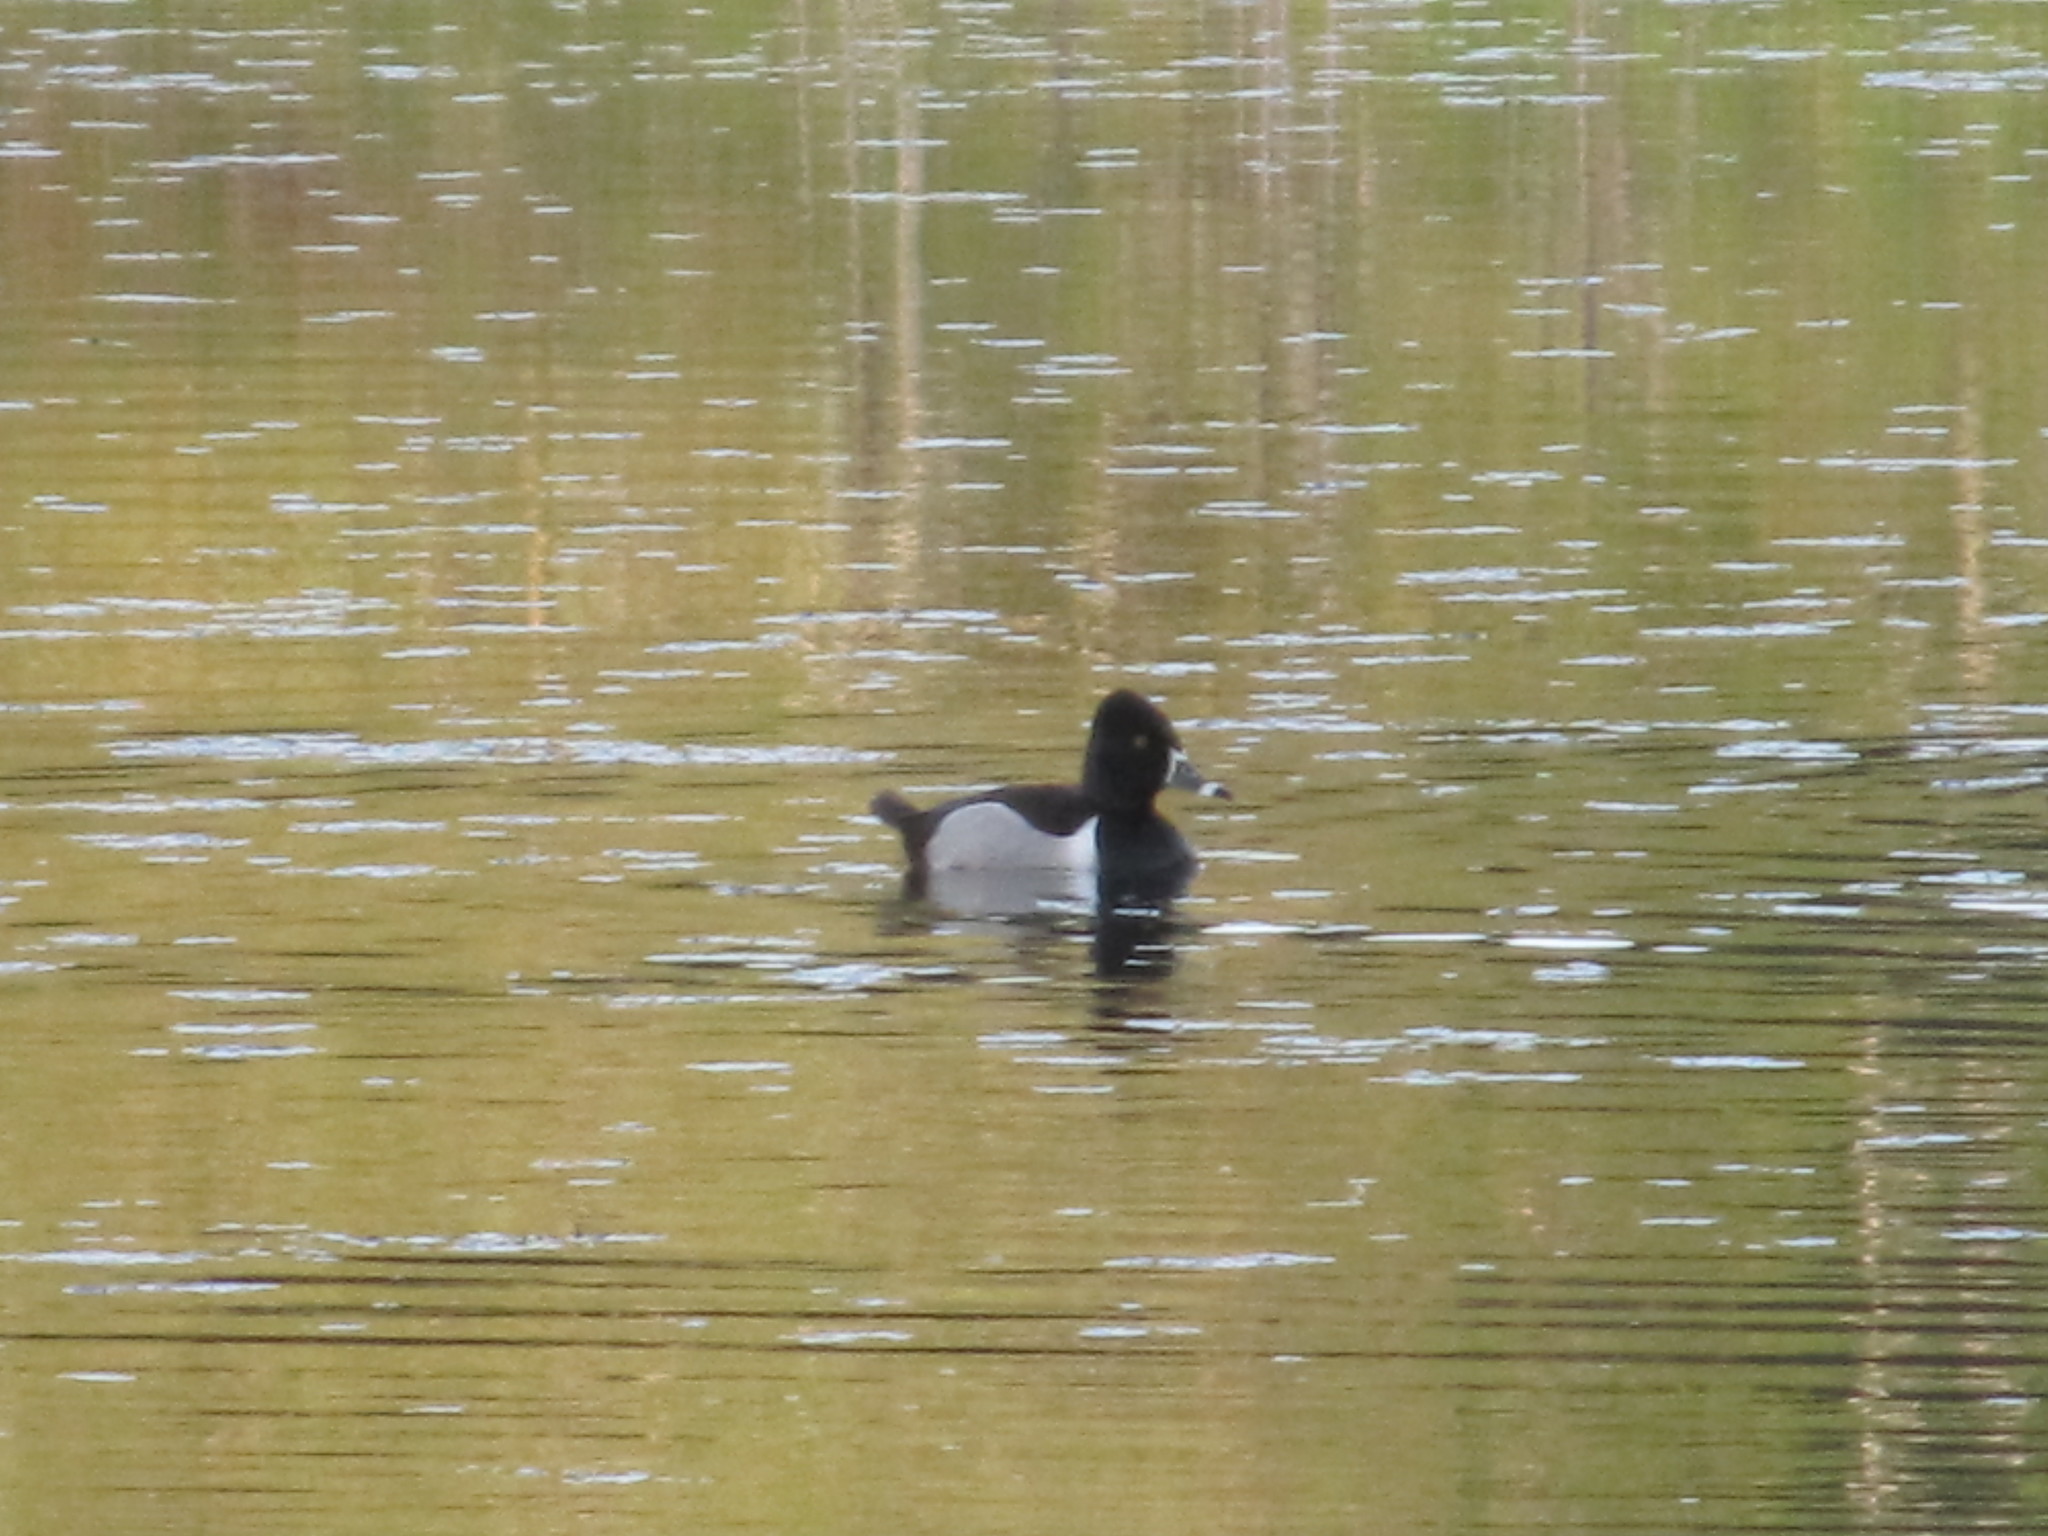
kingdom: Animalia
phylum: Chordata
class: Aves
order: Anseriformes
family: Anatidae
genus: Aythya
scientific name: Aythya collaris
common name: Ring-necked duck
